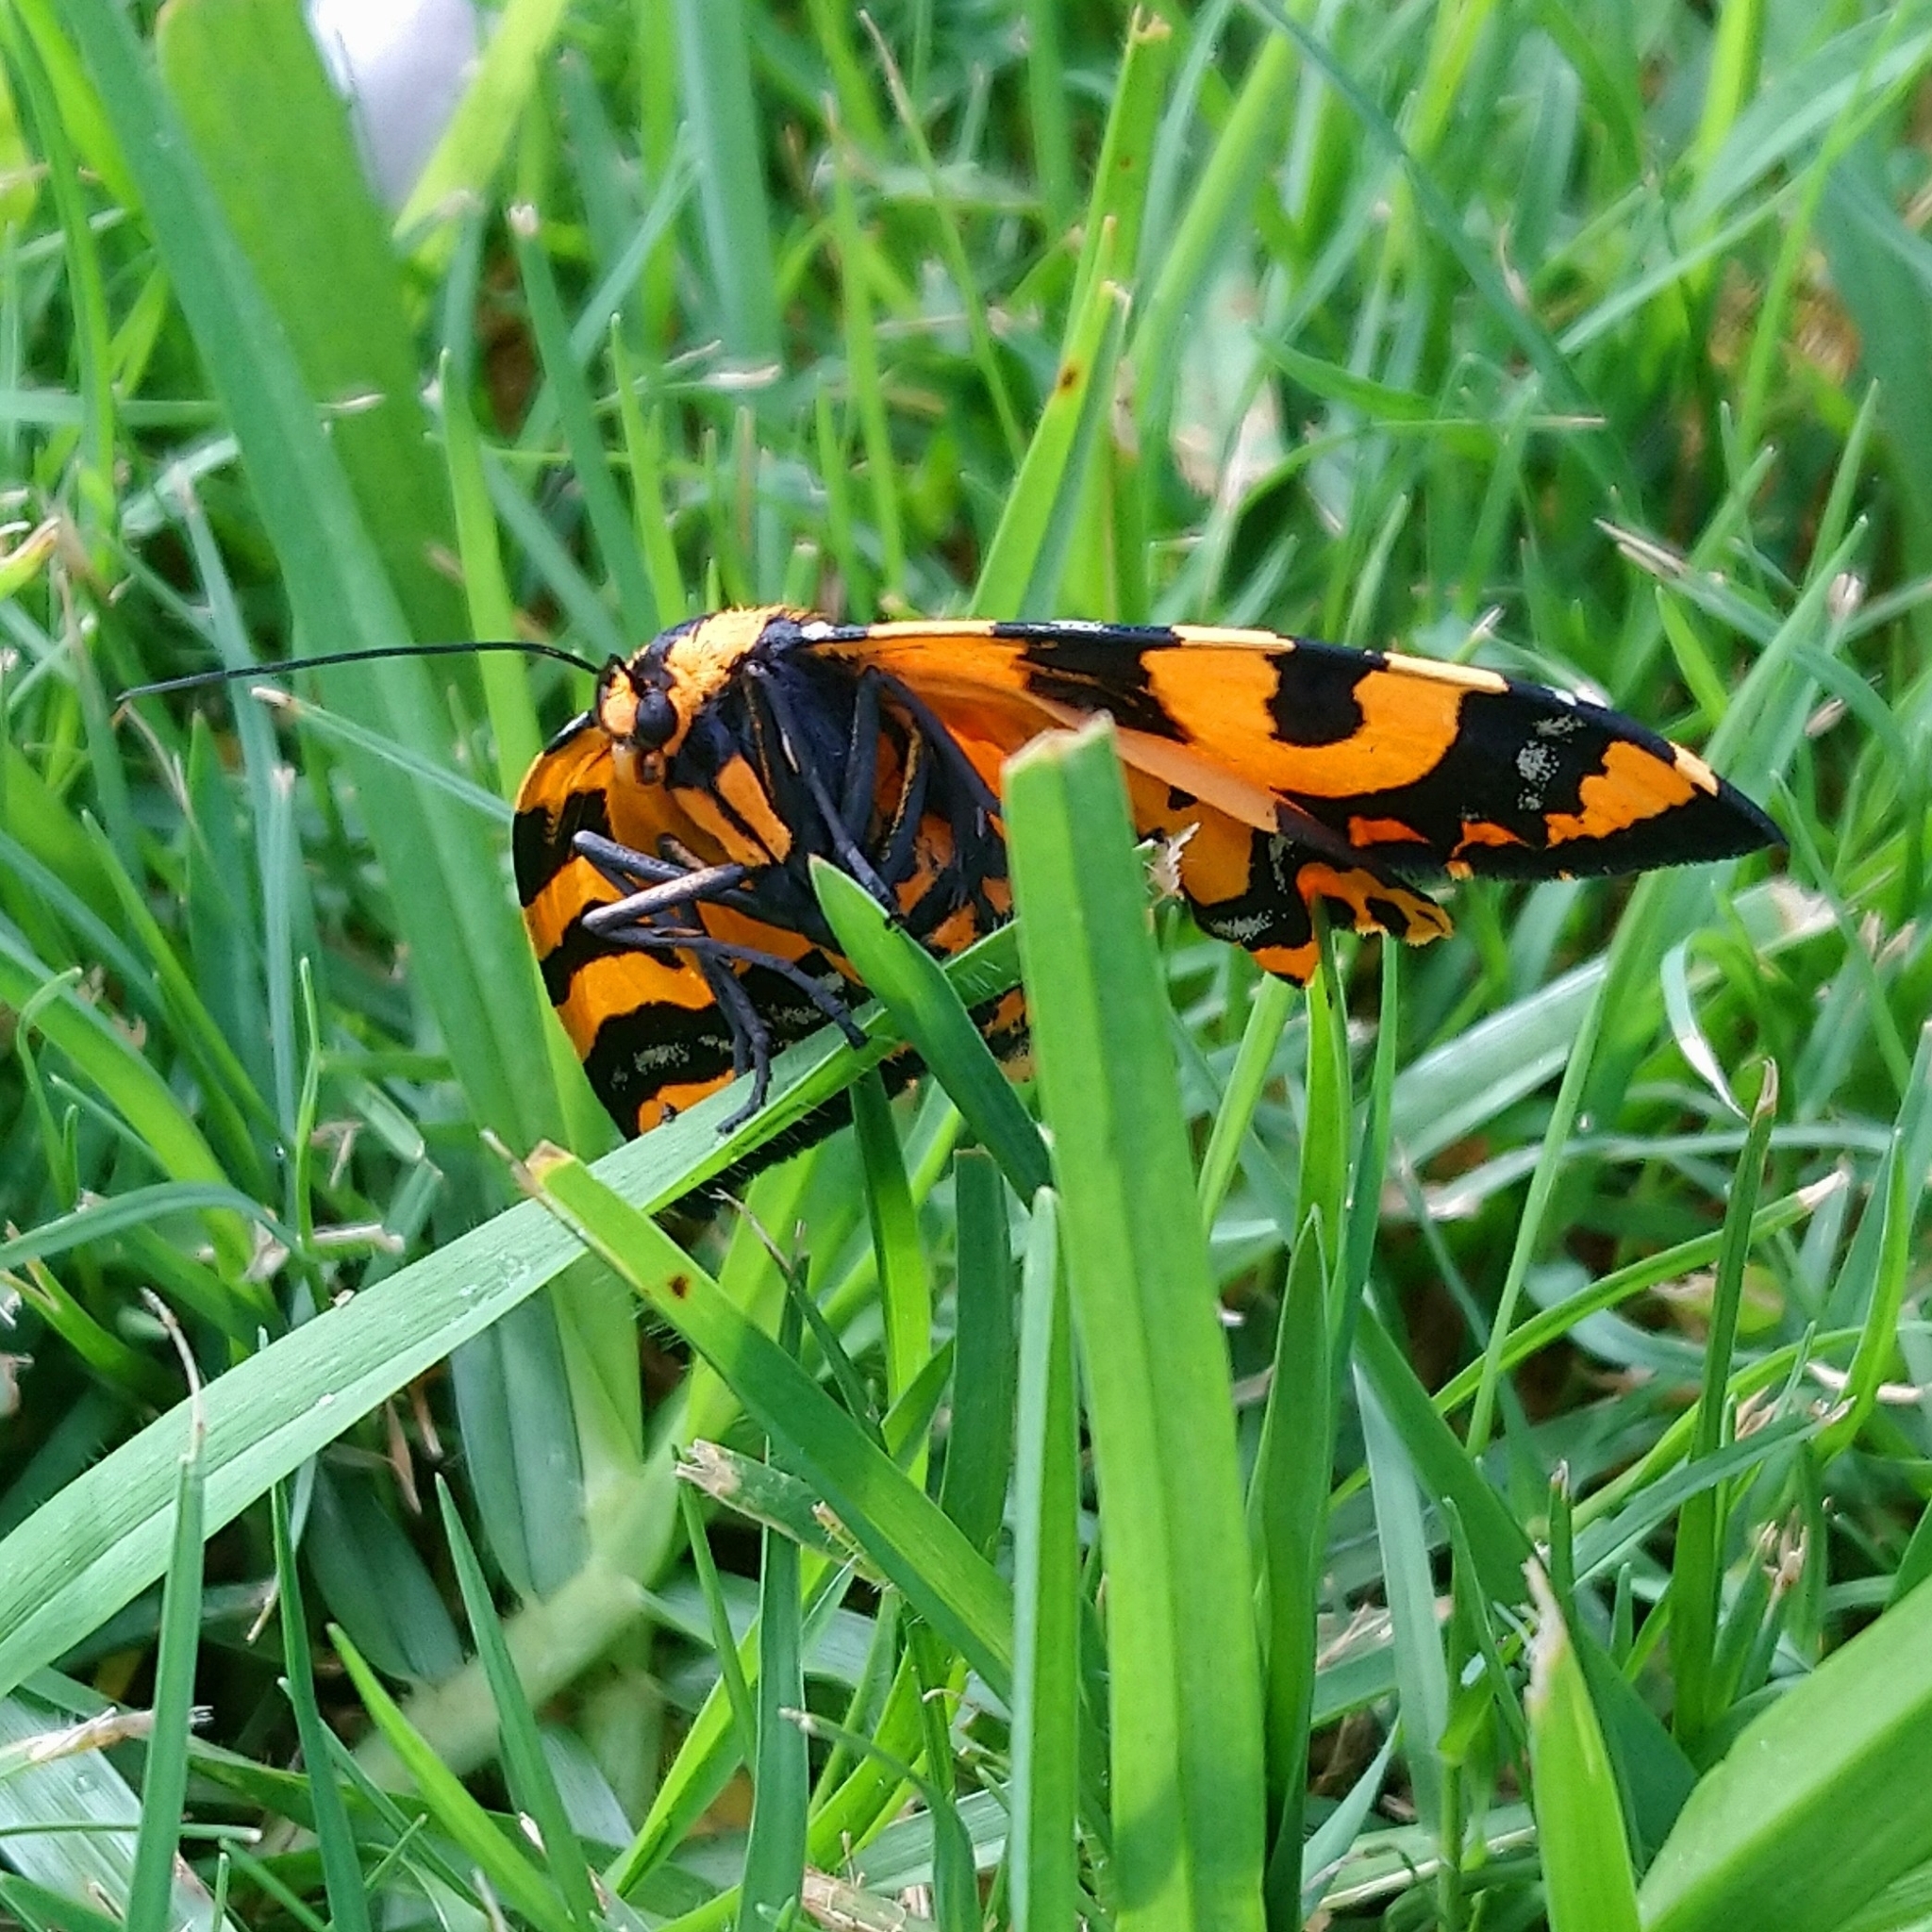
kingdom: Animalia
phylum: Arthropoda
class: Insecta
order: Lepidoptera
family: Geometridae
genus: Callioratis
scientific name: Callioratis abraxas
